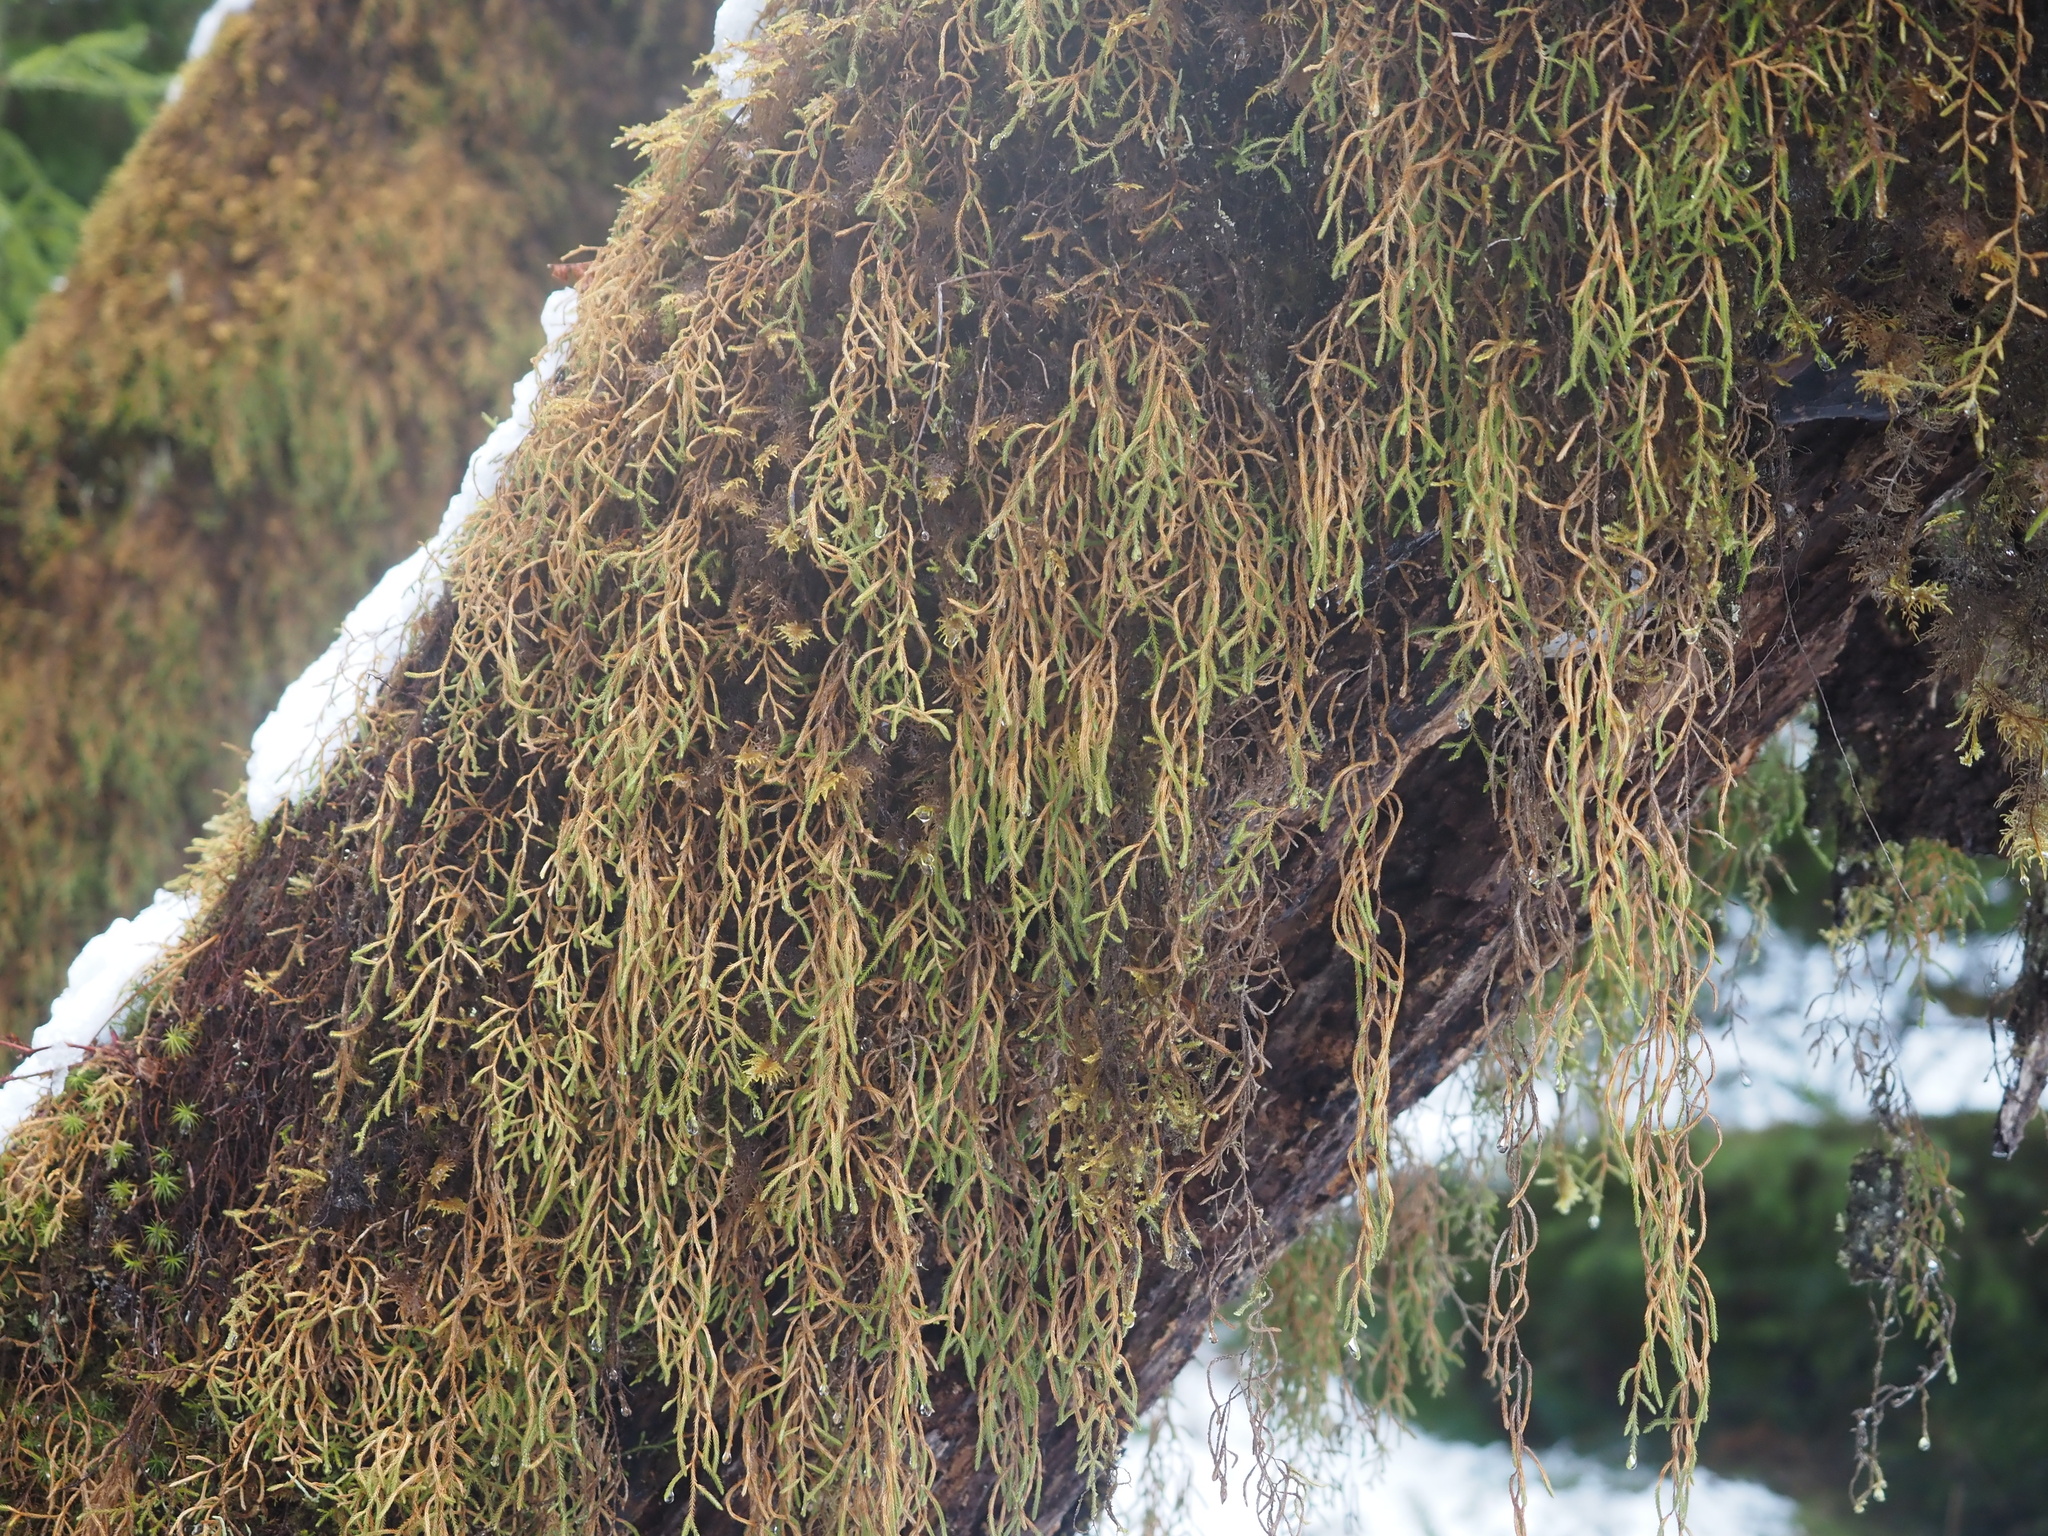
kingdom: Plantae
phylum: Tracheophyta
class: Lycopodiopsida
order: Selaginellales
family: Selaginellaceae
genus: Selaginella
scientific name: Selaginella oregana
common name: Oregon selaginella
